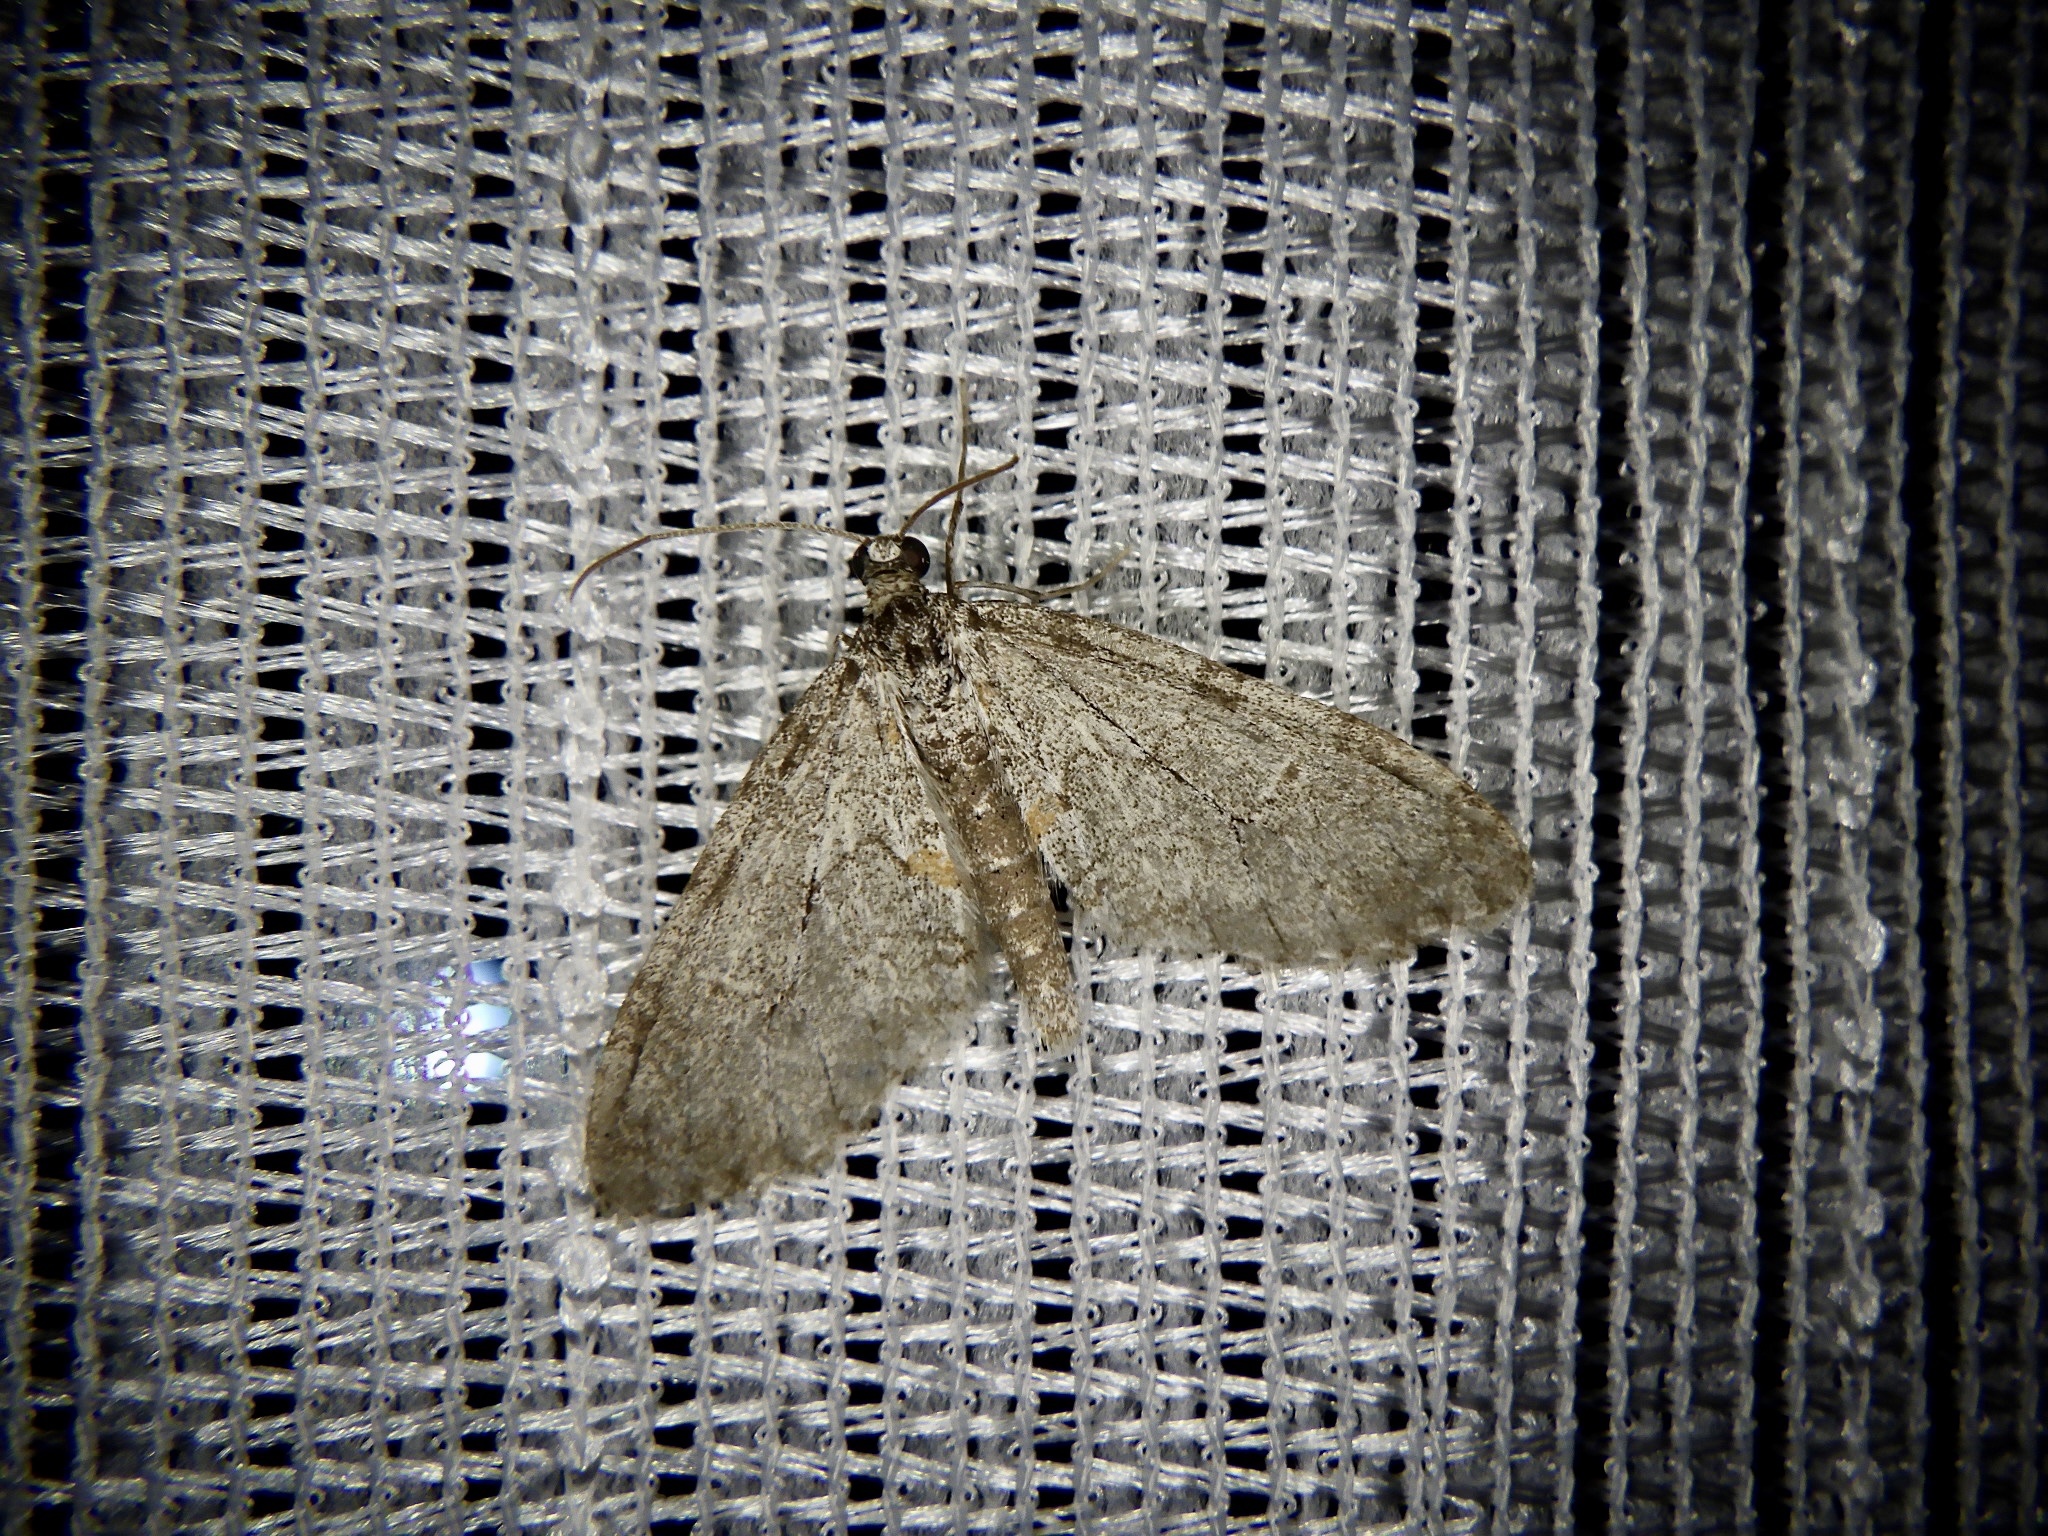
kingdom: Animalia
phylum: Arthropoda
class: Insecta
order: Lepidoptera
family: Geometridae
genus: Trichopteryx
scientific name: Trichopteryx hemana
